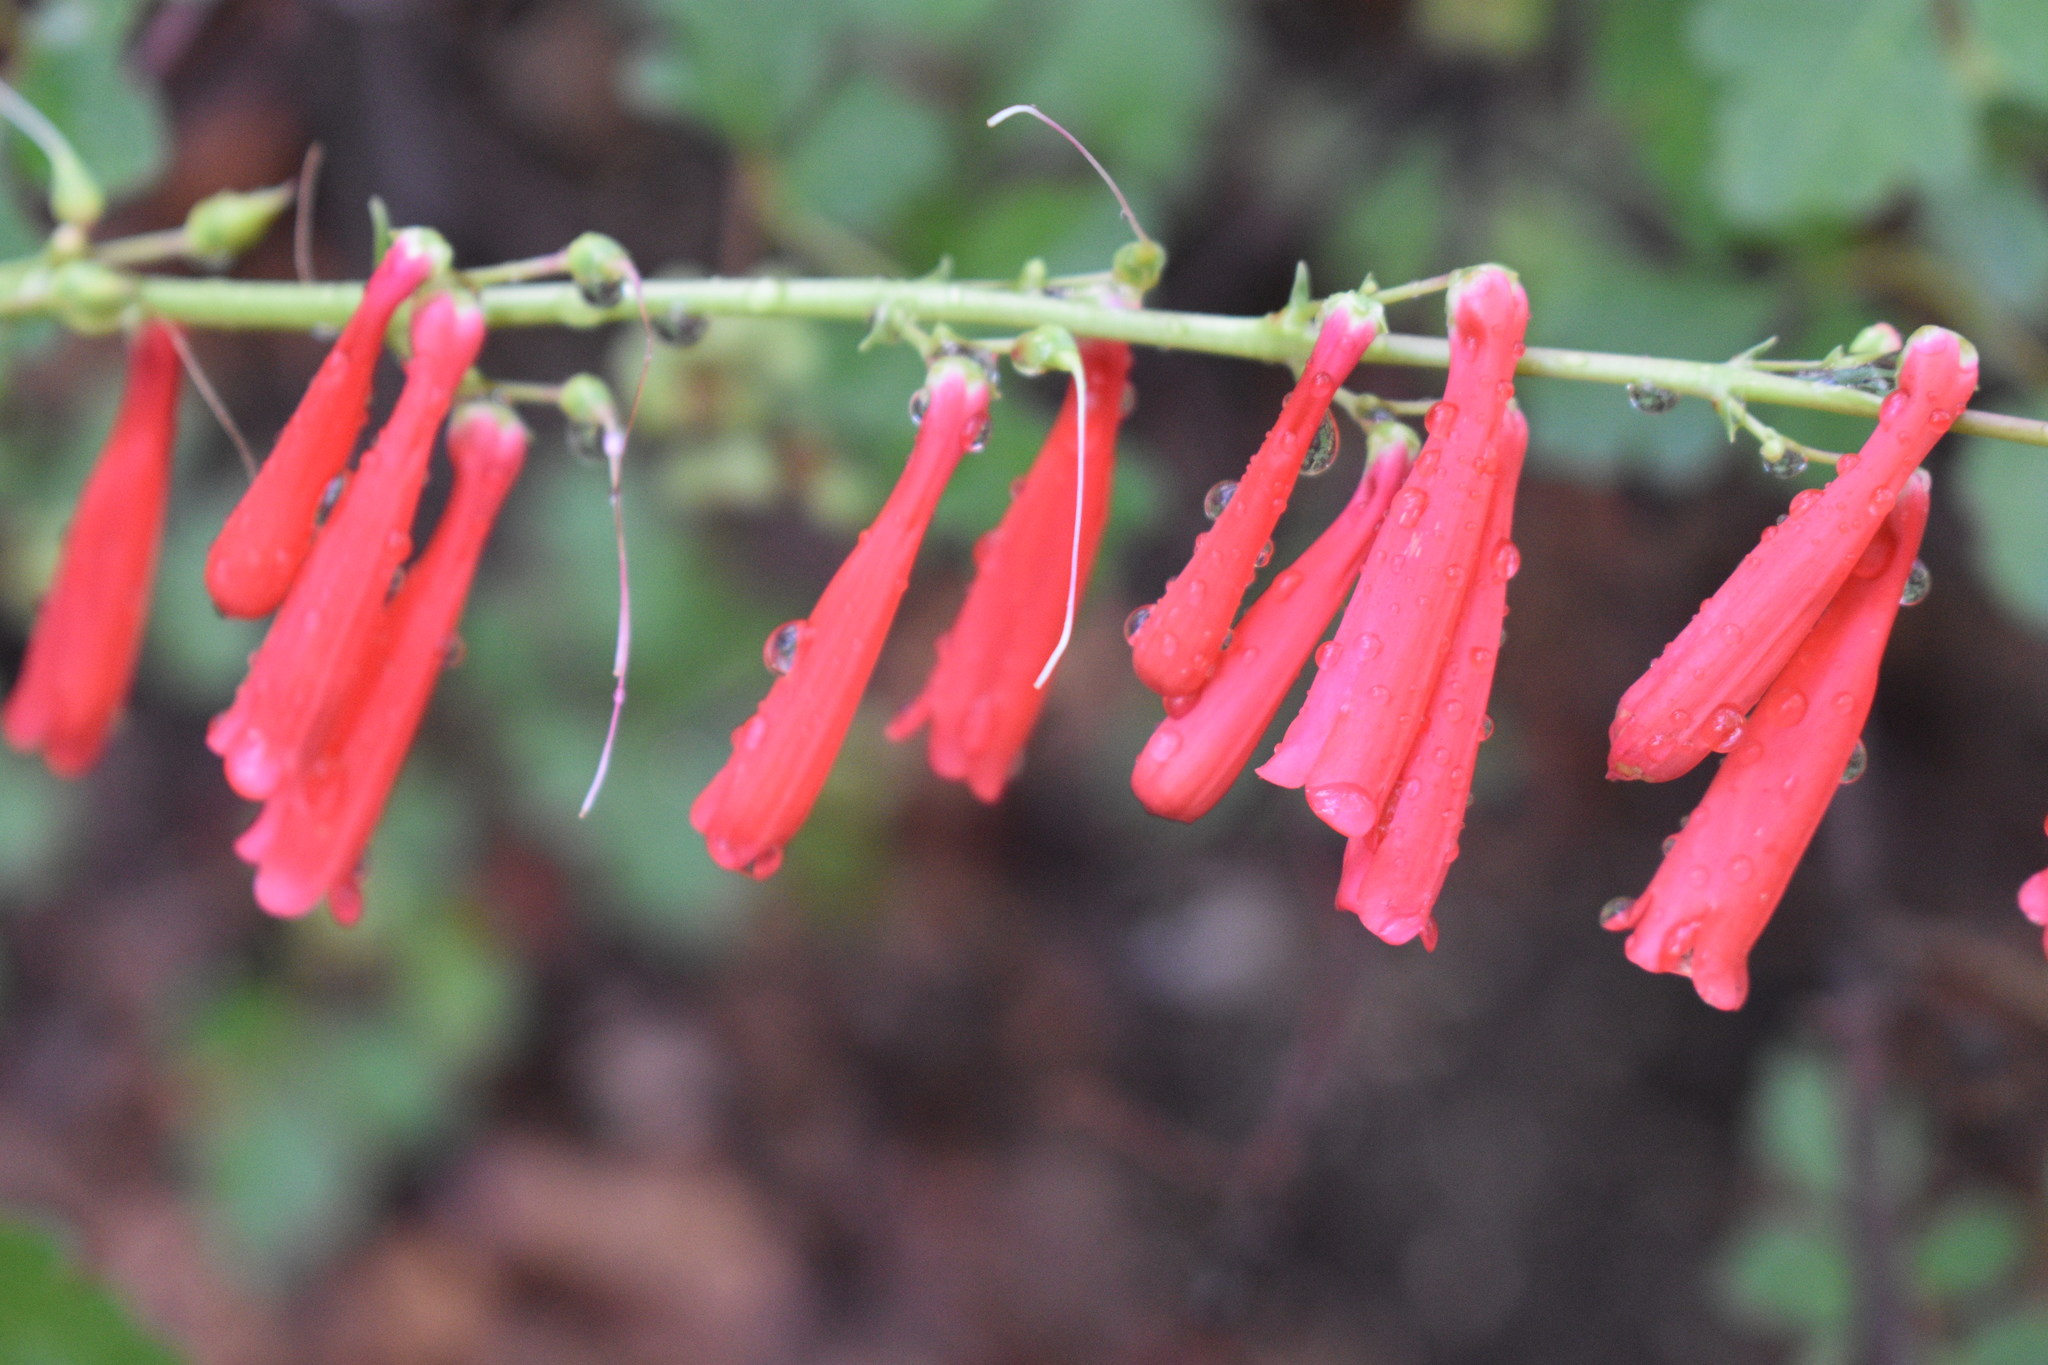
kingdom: Plantae
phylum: Tracheophyta
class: Magnoliopsida
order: Lamiales
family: Plantaginaceae
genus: Penstemon
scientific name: Penstemon eatonii
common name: Eaton's penstemon
